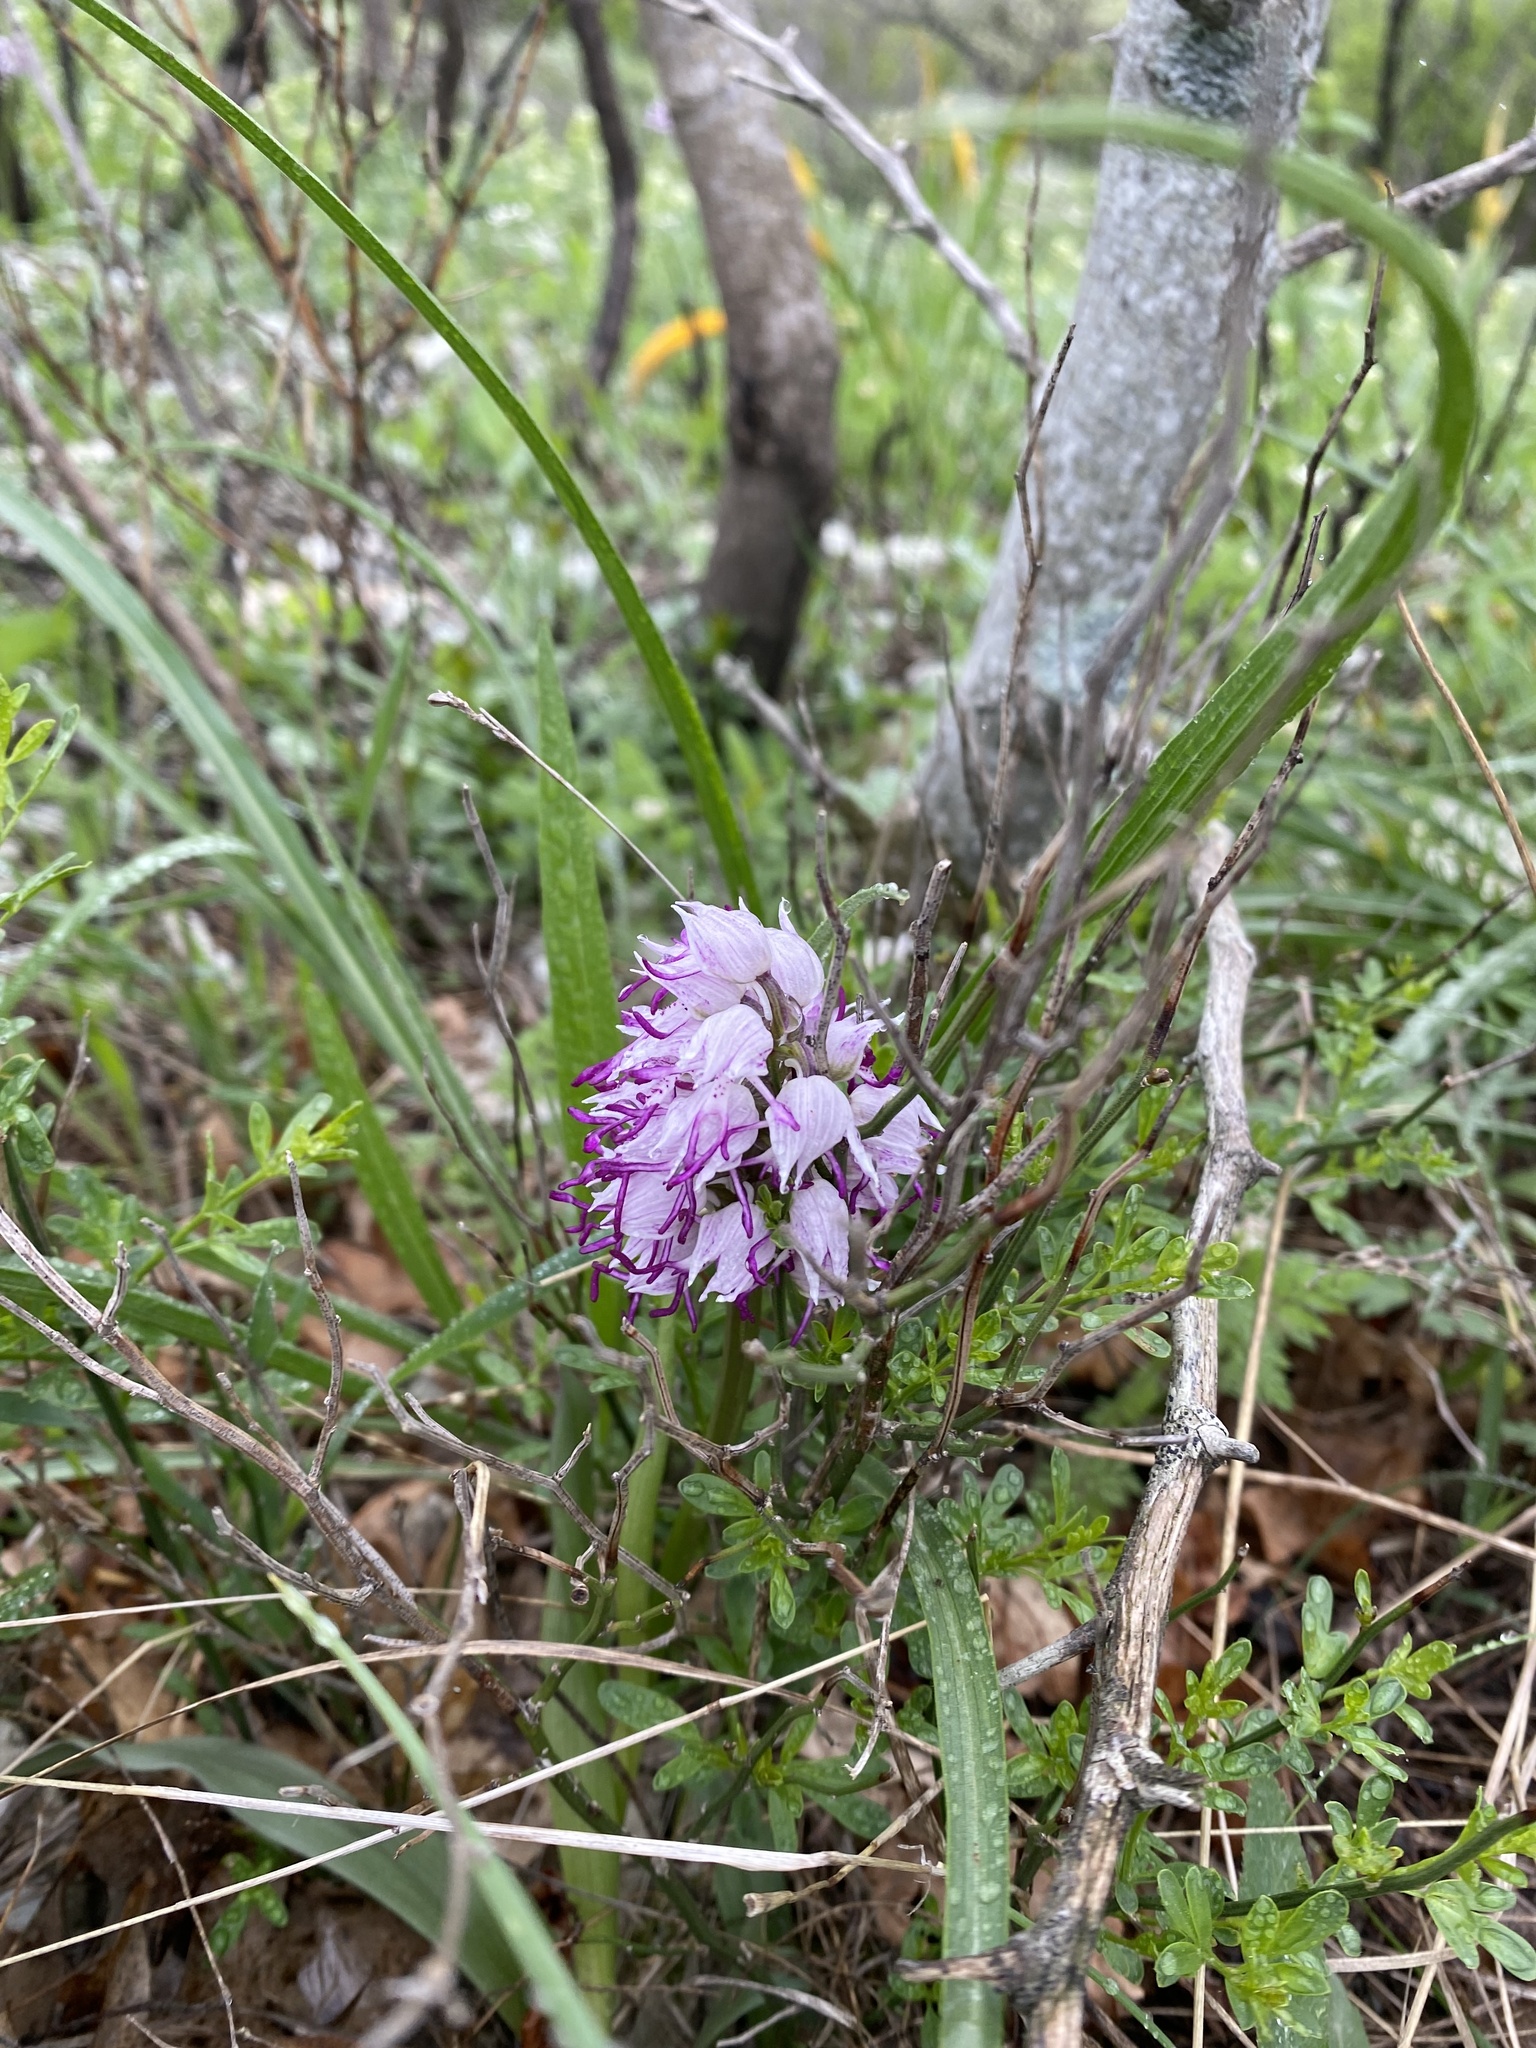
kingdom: Plantae
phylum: Tracheophyta
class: Liliopsida
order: Asparagales
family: Orchidaceae
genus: Orchis
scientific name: Orchis simia
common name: Monkey orchid
